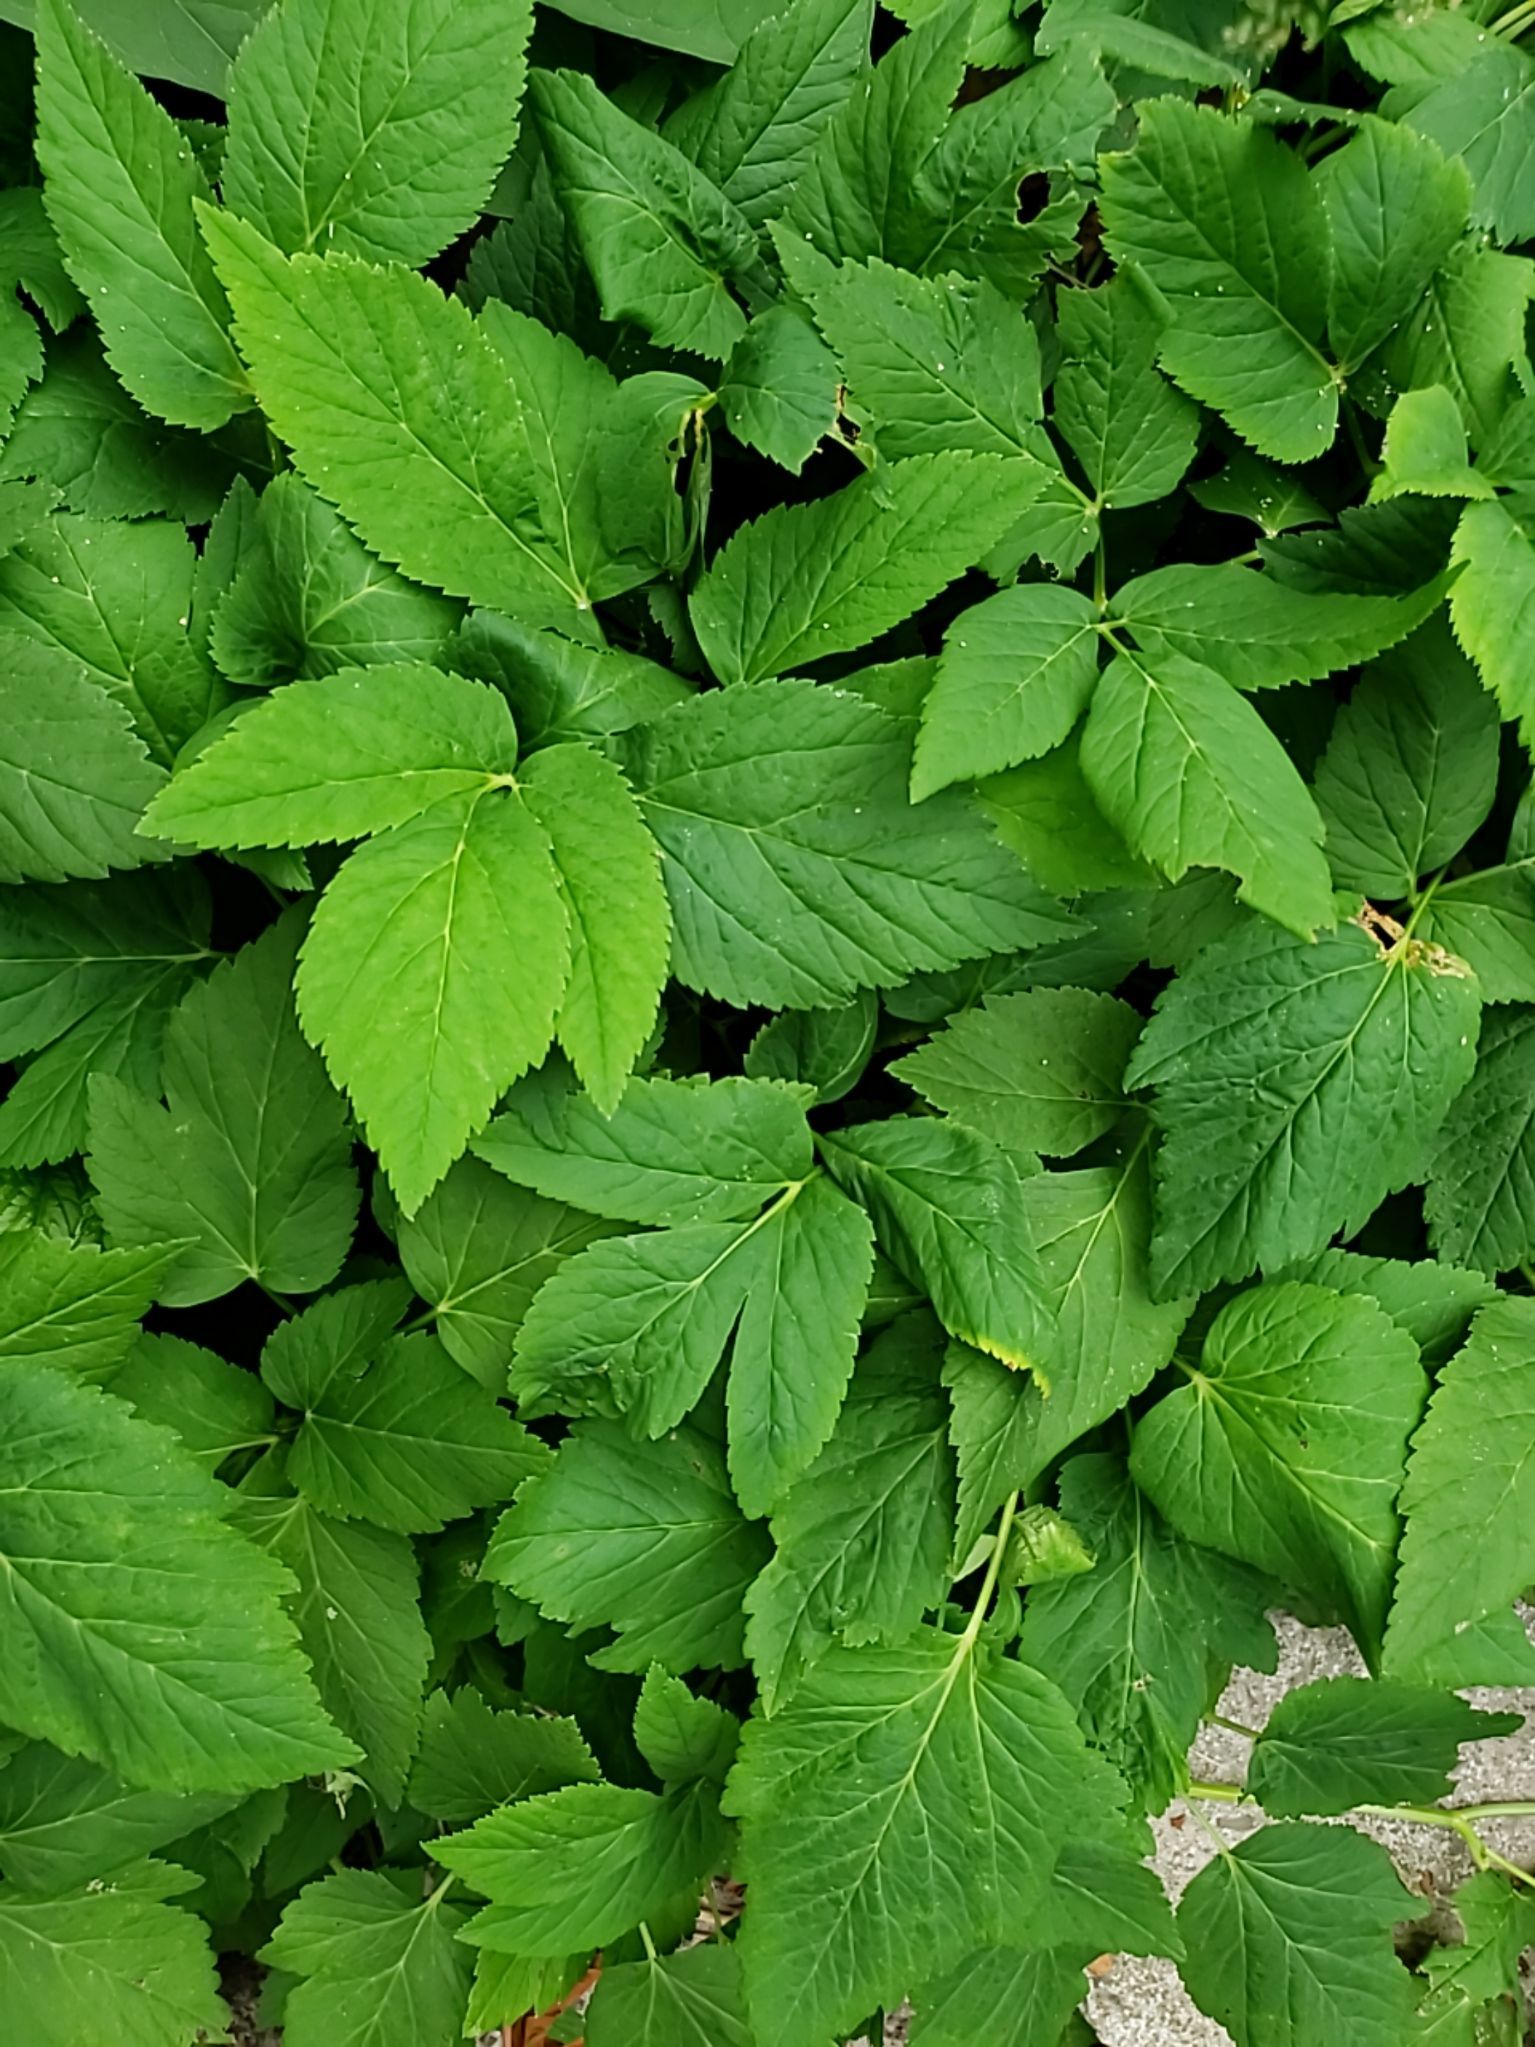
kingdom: Plantae
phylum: Tracheophyta
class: Magnoliopsida
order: Apiales
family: Apiaceae
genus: Aegopodium
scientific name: Aegopodium podagraria
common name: Ground-elder
